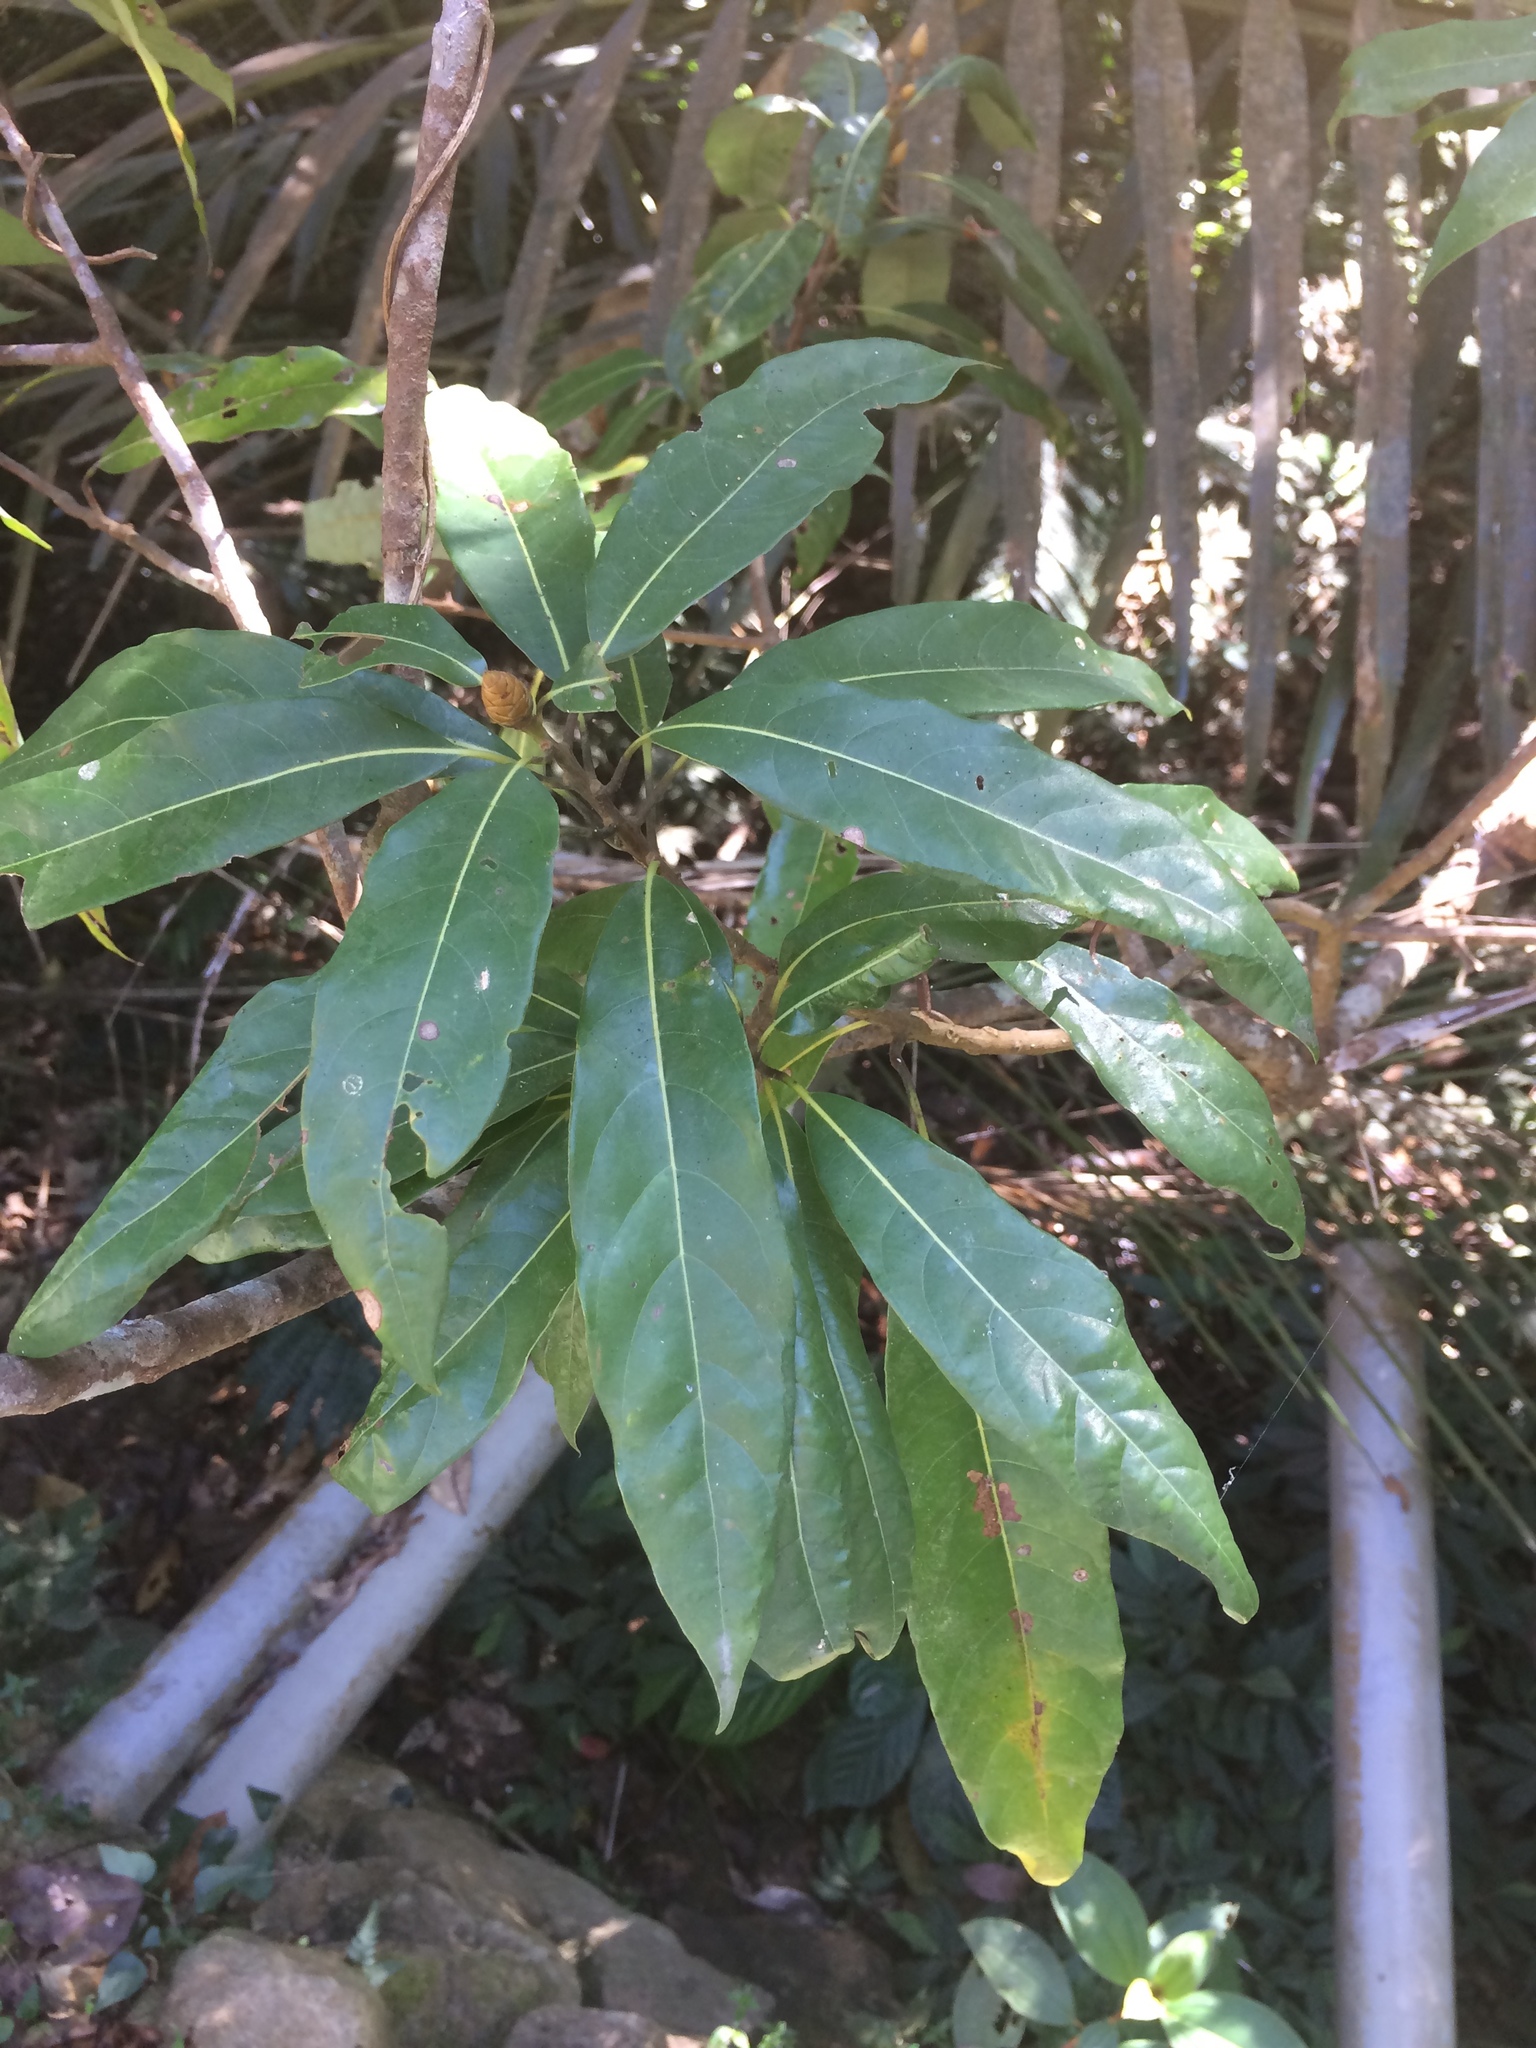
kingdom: Plantae
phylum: Tracheophyta
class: Magnoliopsida
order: Laurales
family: Lauraceae
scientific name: Lauraceae
